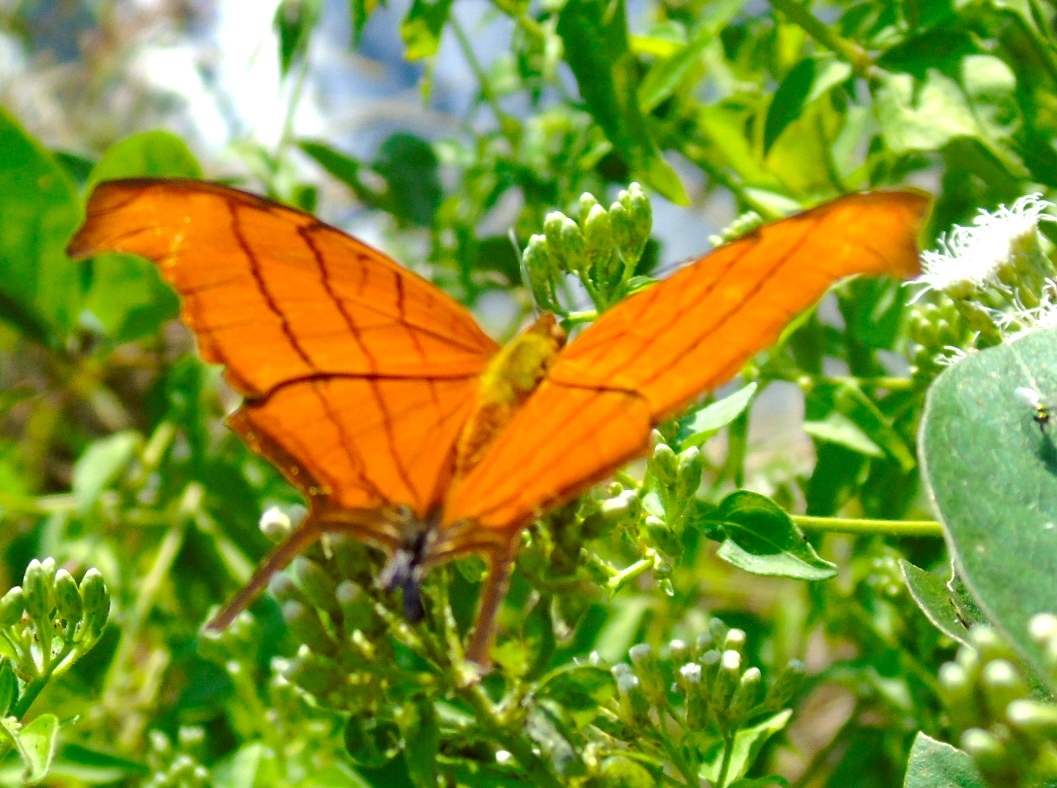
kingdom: Animalia
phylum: Arthropoda
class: Insecta
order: Lepidoptera
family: Nymphalidae
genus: Marpesia
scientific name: Marpesia petreus
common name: Red dagger wing
